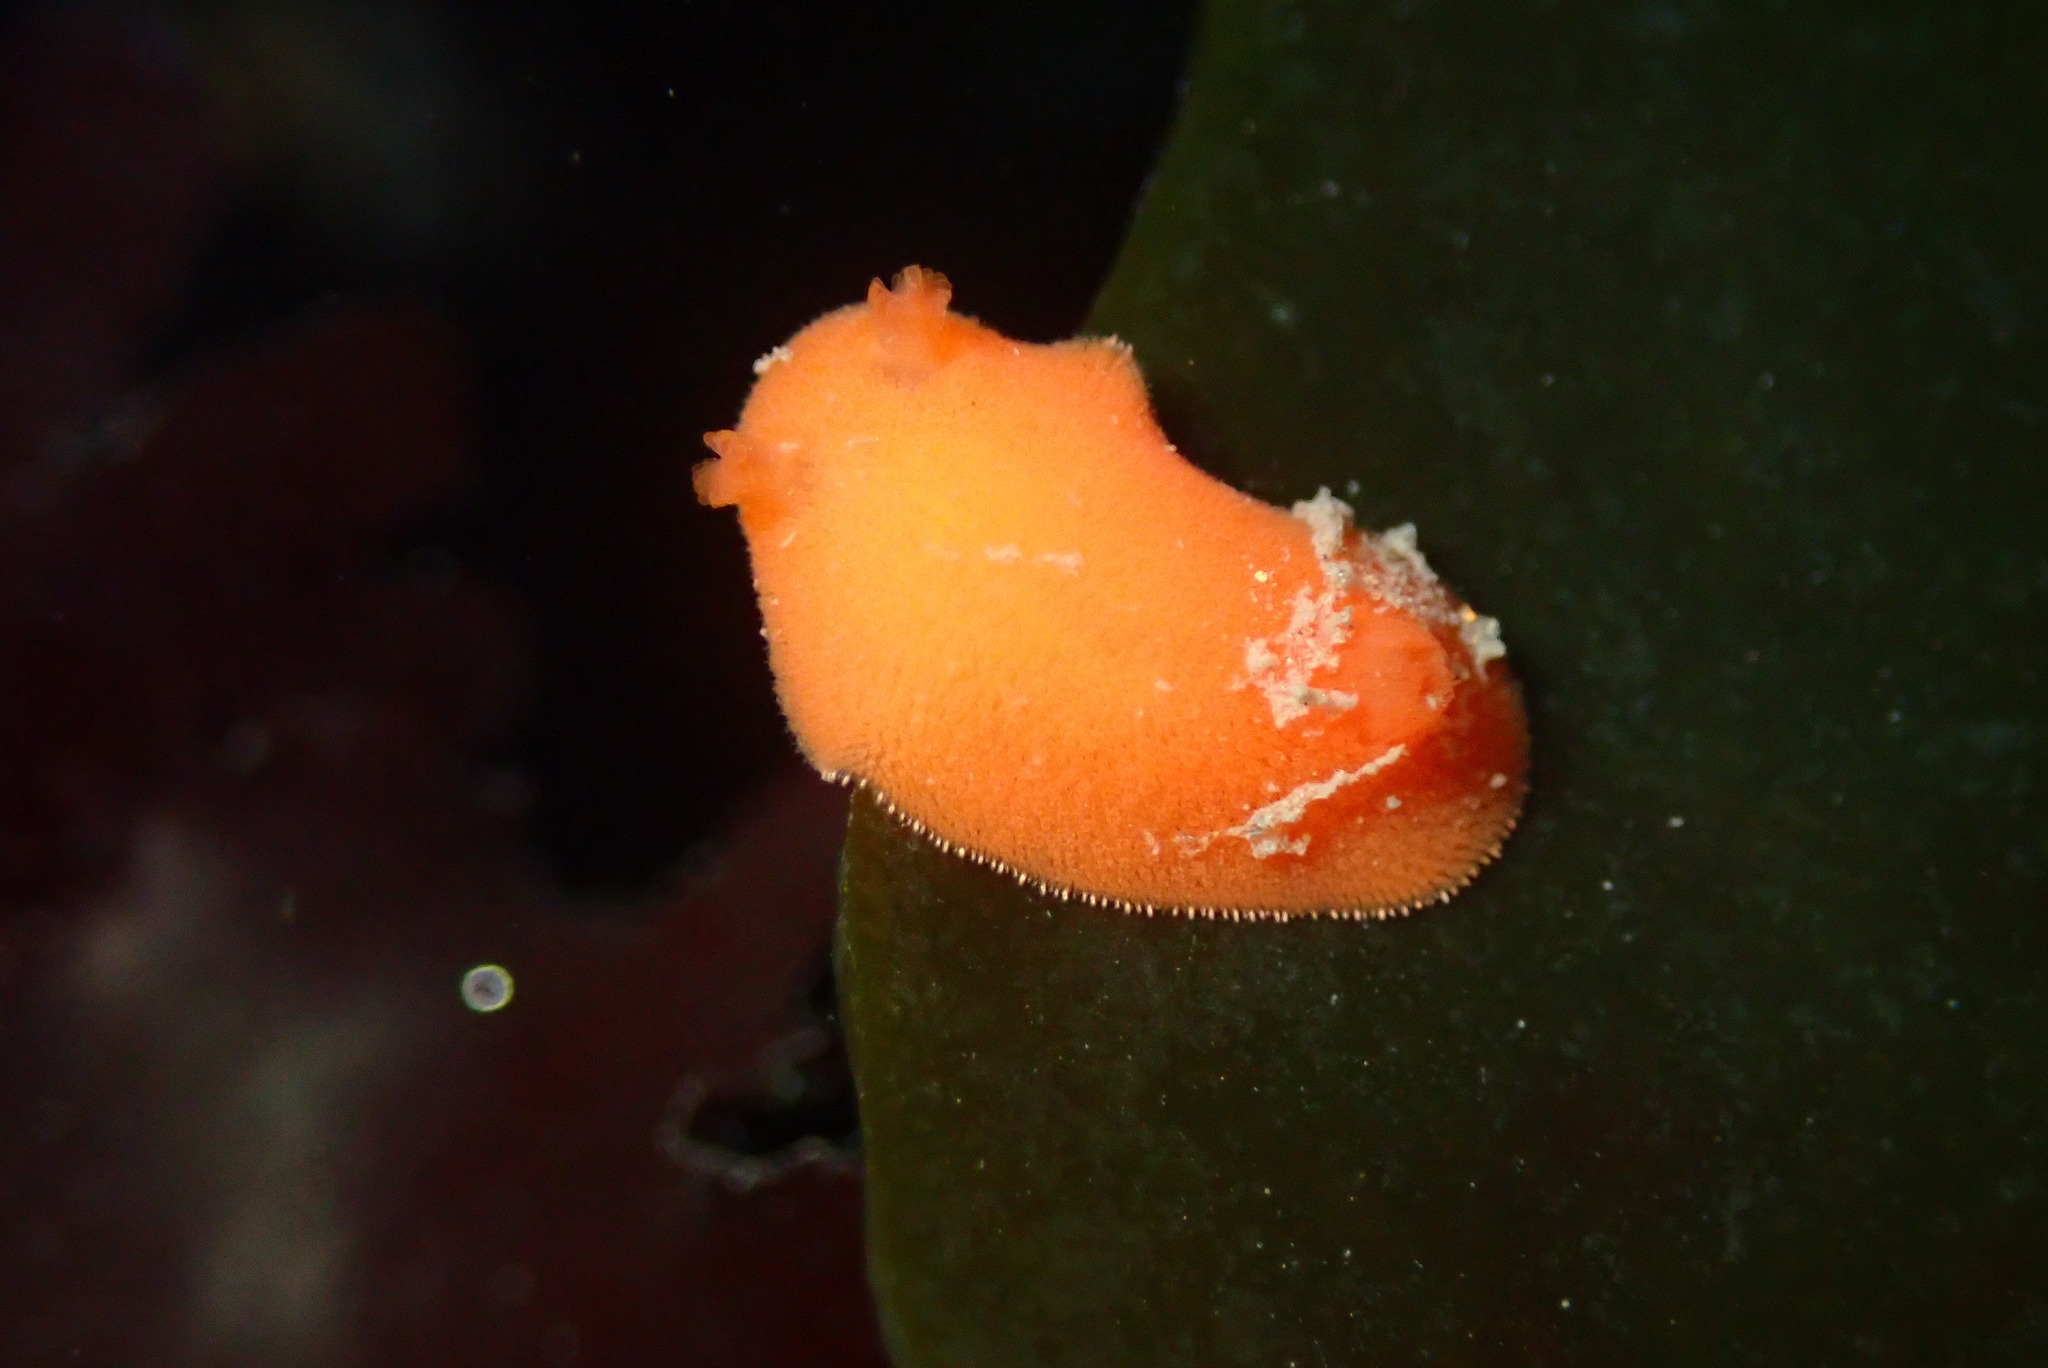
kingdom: Animalia
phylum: Mollusca
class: Gastropoda
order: Nudibranchia
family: Discodorididae
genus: Rostanga
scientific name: Rostanga pulchra
